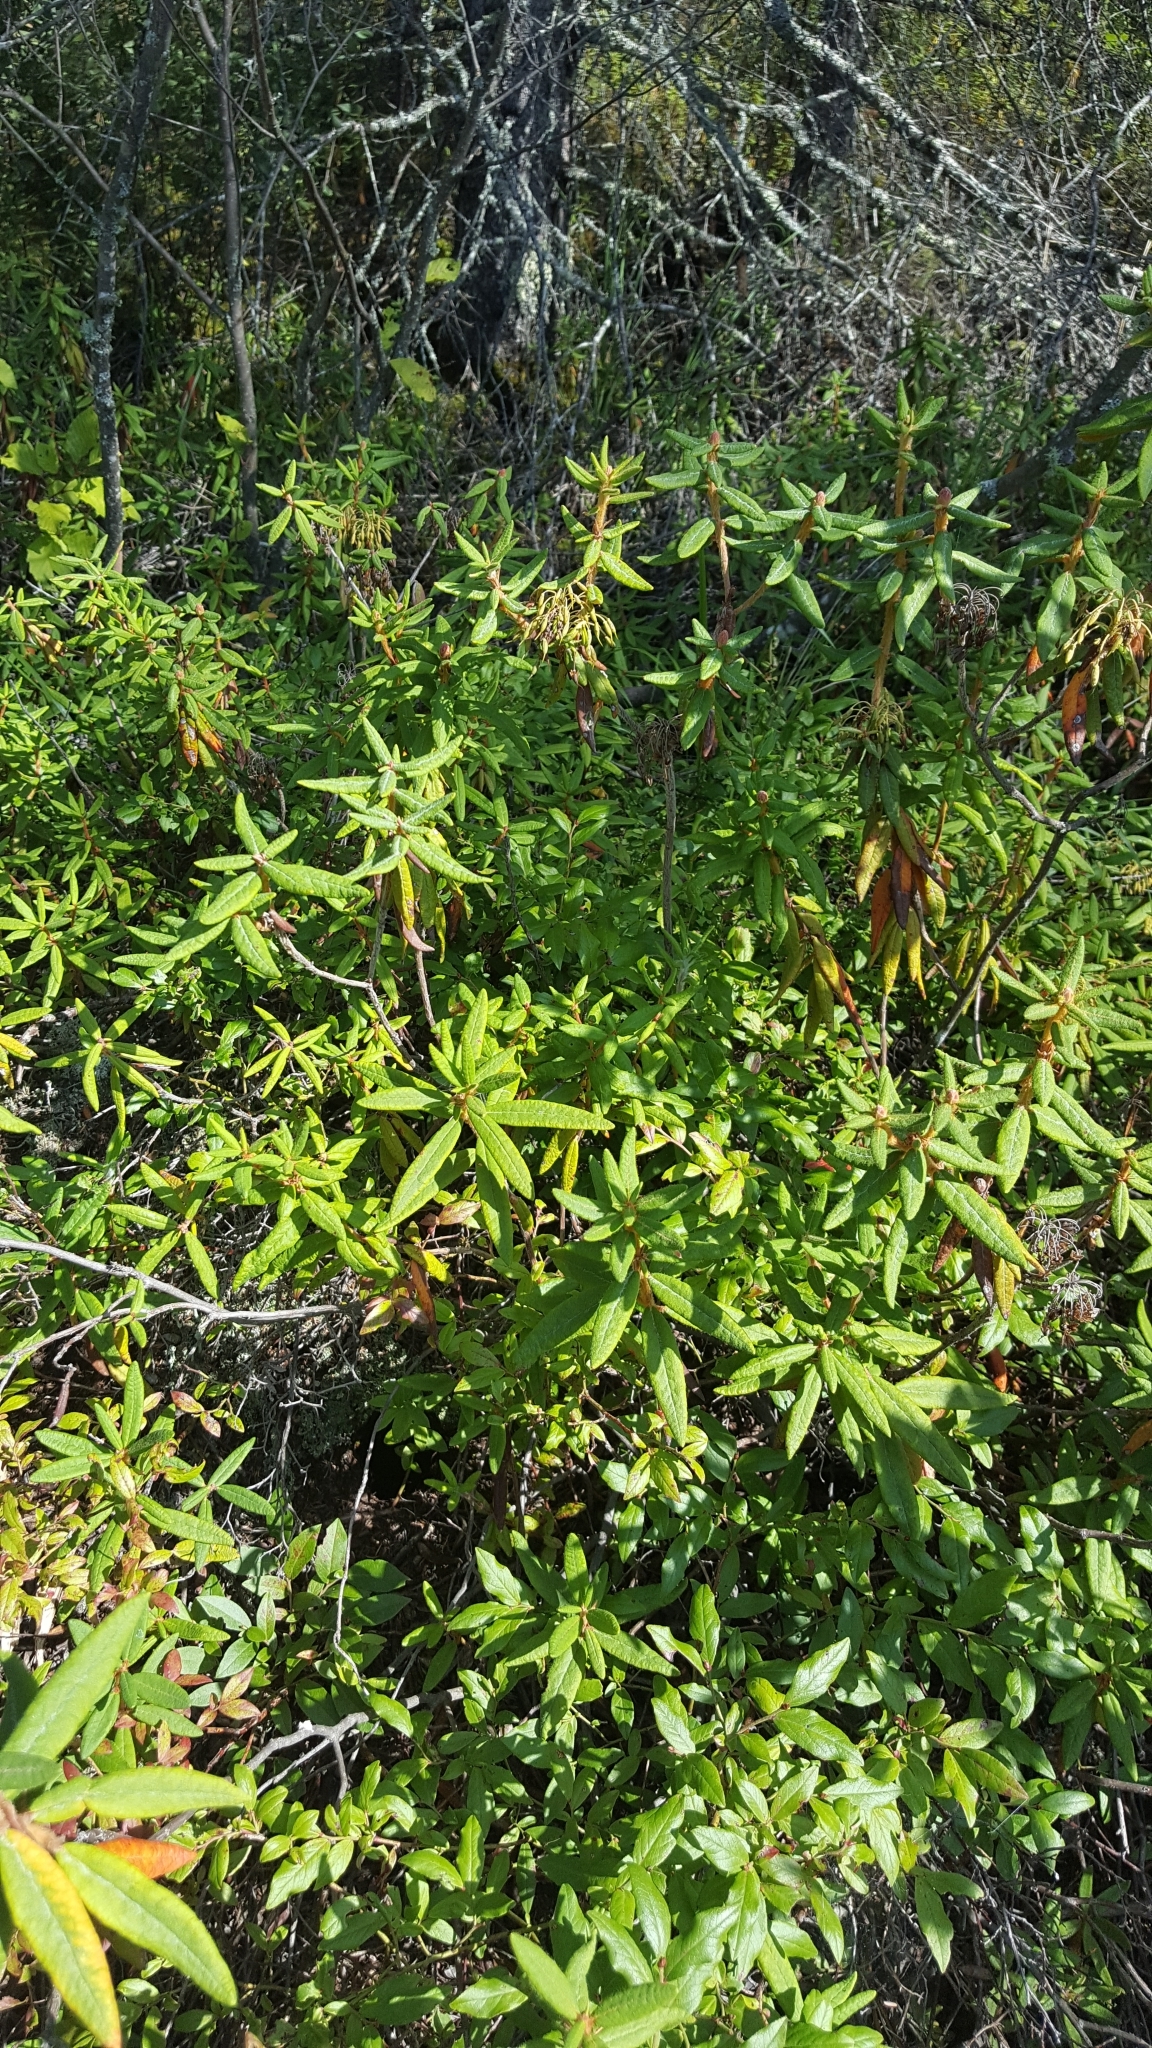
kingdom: Plantae
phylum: Tracheophyta
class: Magnoliopsida
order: Ericales
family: Ericaceae
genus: Rhododendron
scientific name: Rhododendron groenlandicum
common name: Bog labrador tea
